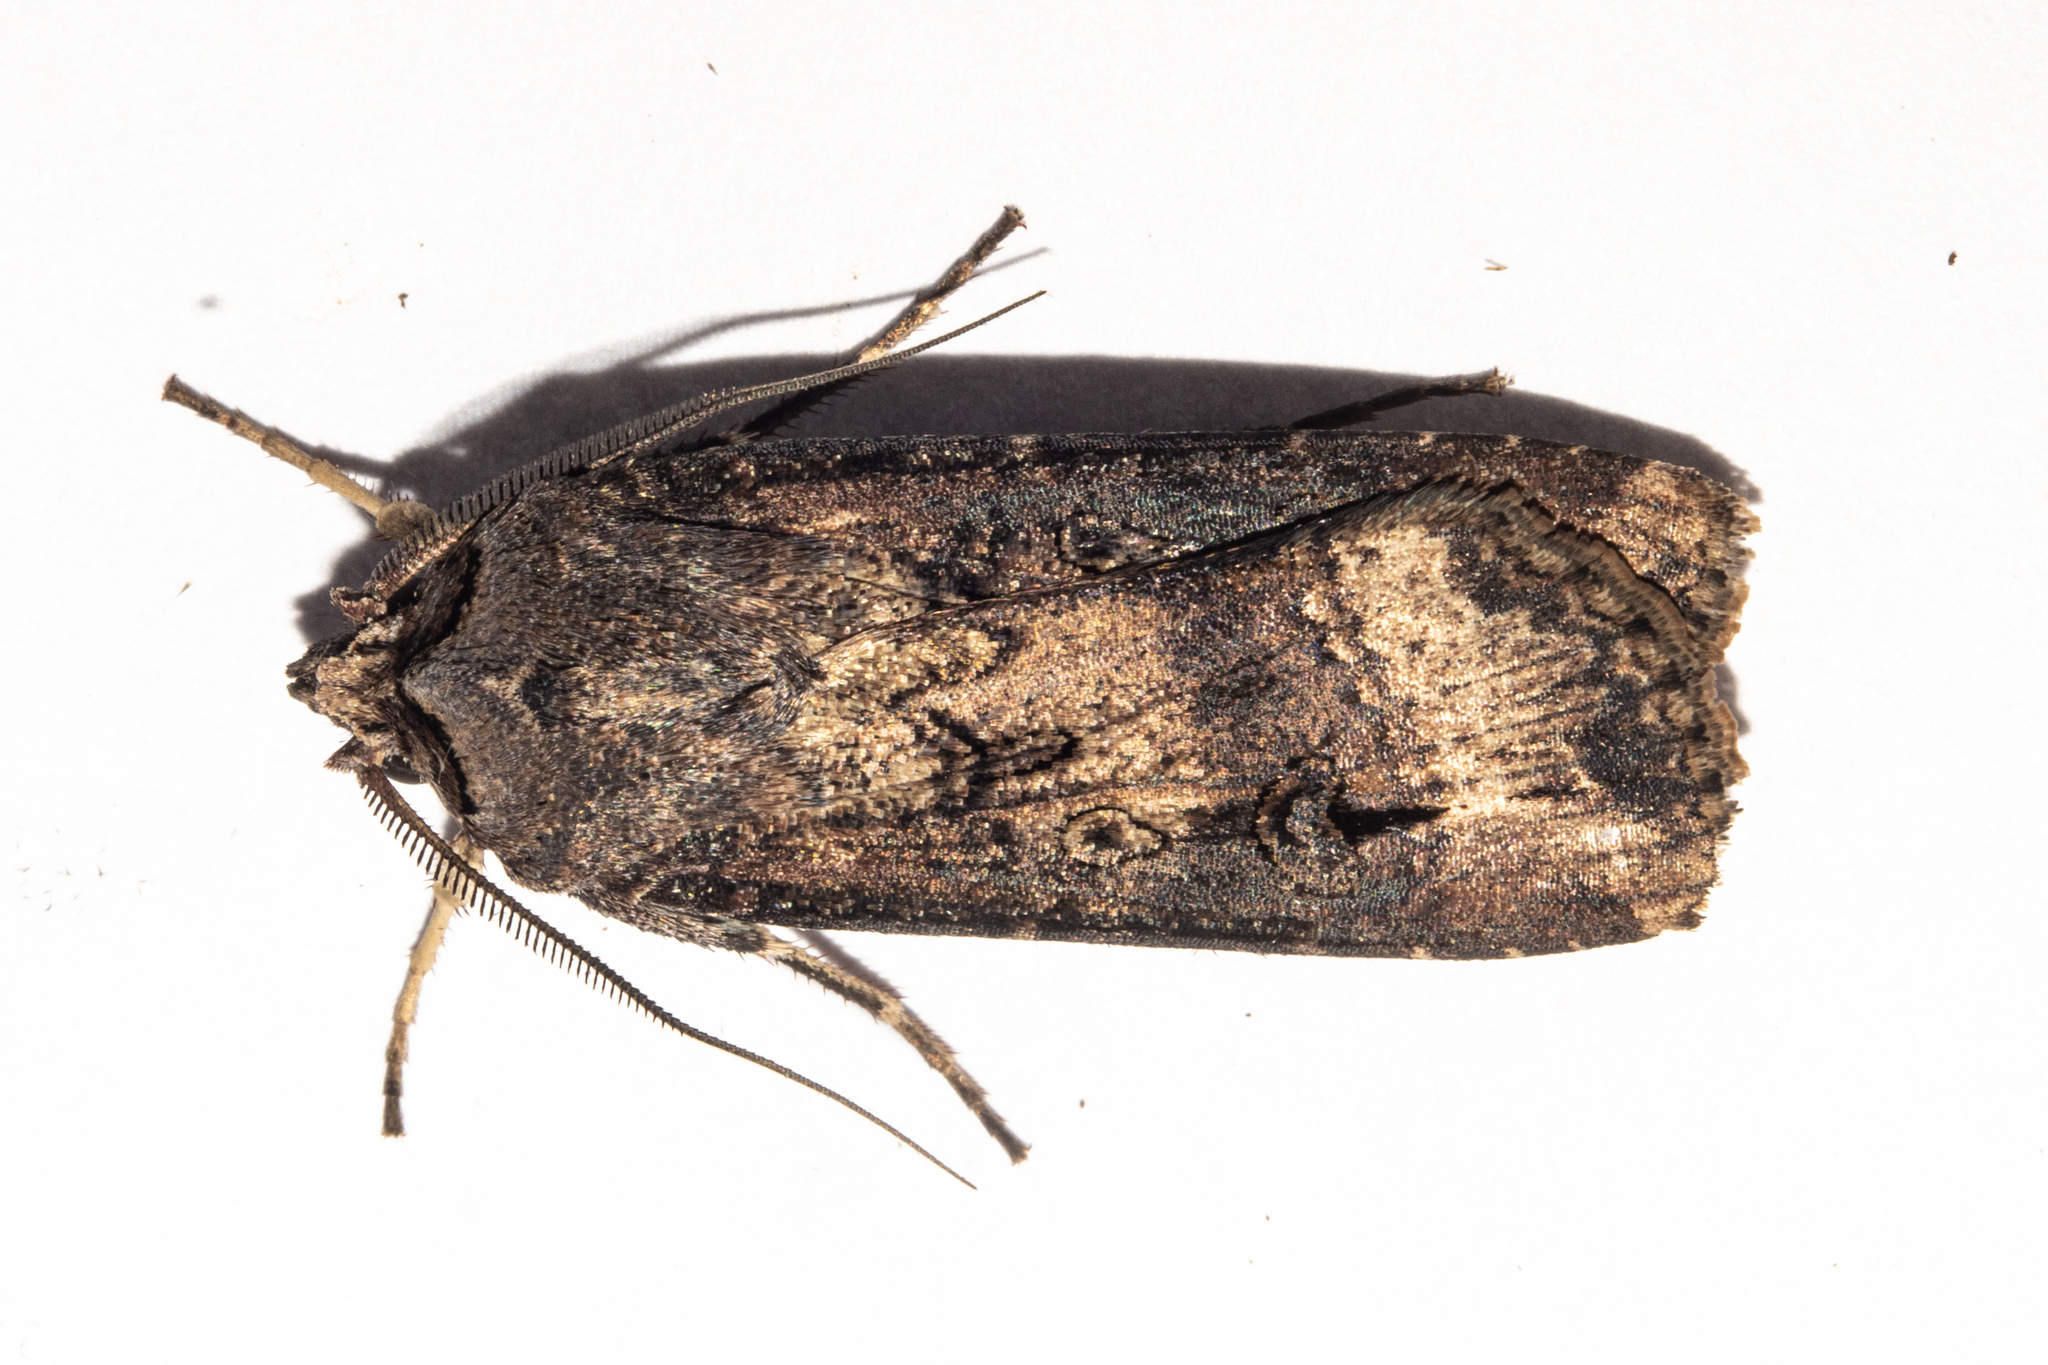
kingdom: Animalia
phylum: Arthropoda
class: Insecta
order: Lepidoptera
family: Noctuidae
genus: Agrotis
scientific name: Agrotis ipsilon
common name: Dark sword-grass
